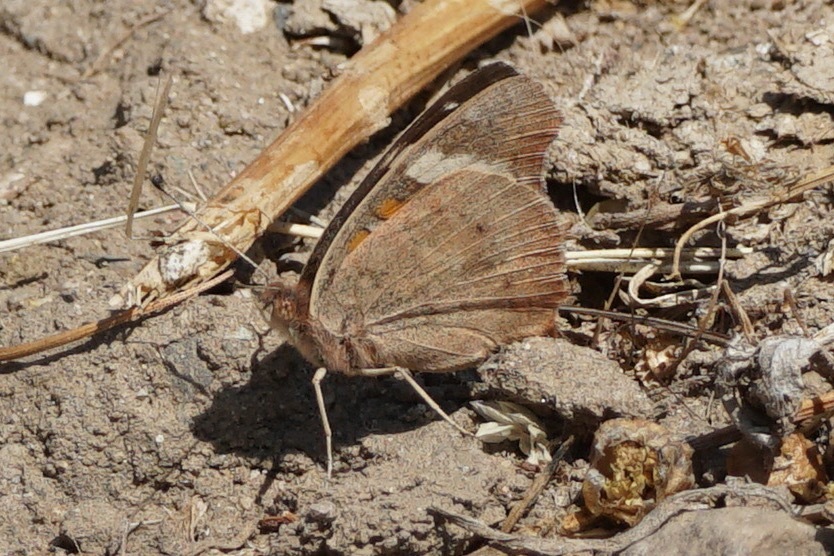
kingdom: Animalia
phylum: Arthropoda
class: Insecta
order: Lepidoptera
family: Nymphalidae
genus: Junonia
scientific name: Junonia grisea
